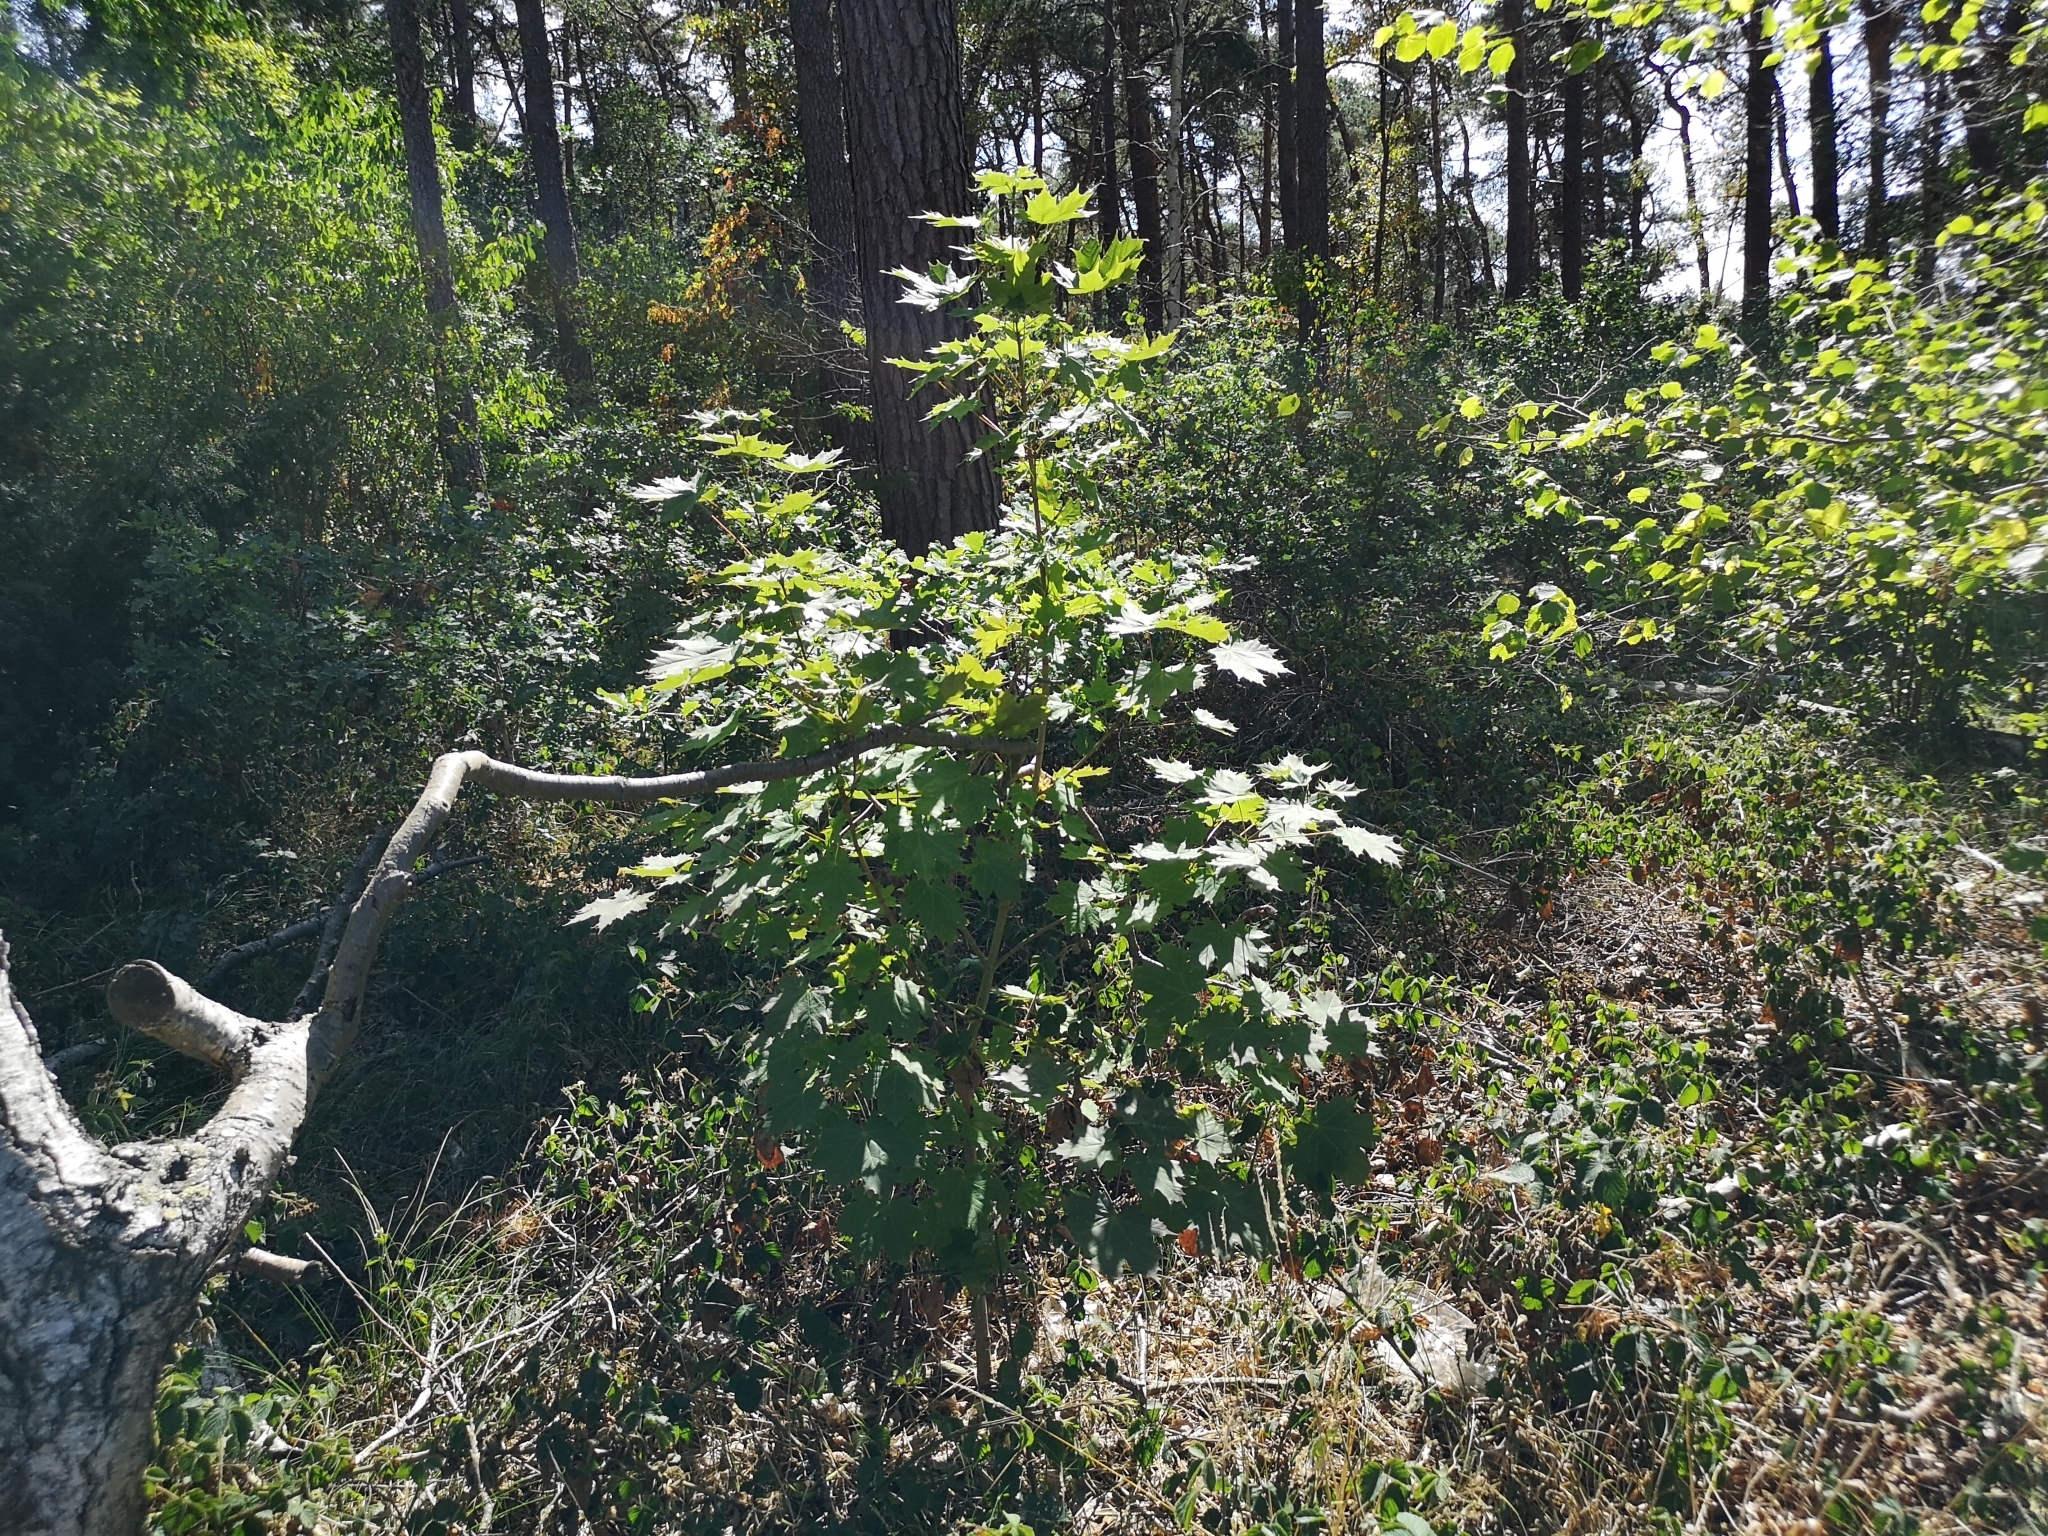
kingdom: Plantae
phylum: Tracheophyta
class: Magnoliopsida
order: Sapindales
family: Sapindaceae
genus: Acer
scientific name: Acer platanoides
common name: Norway maple
